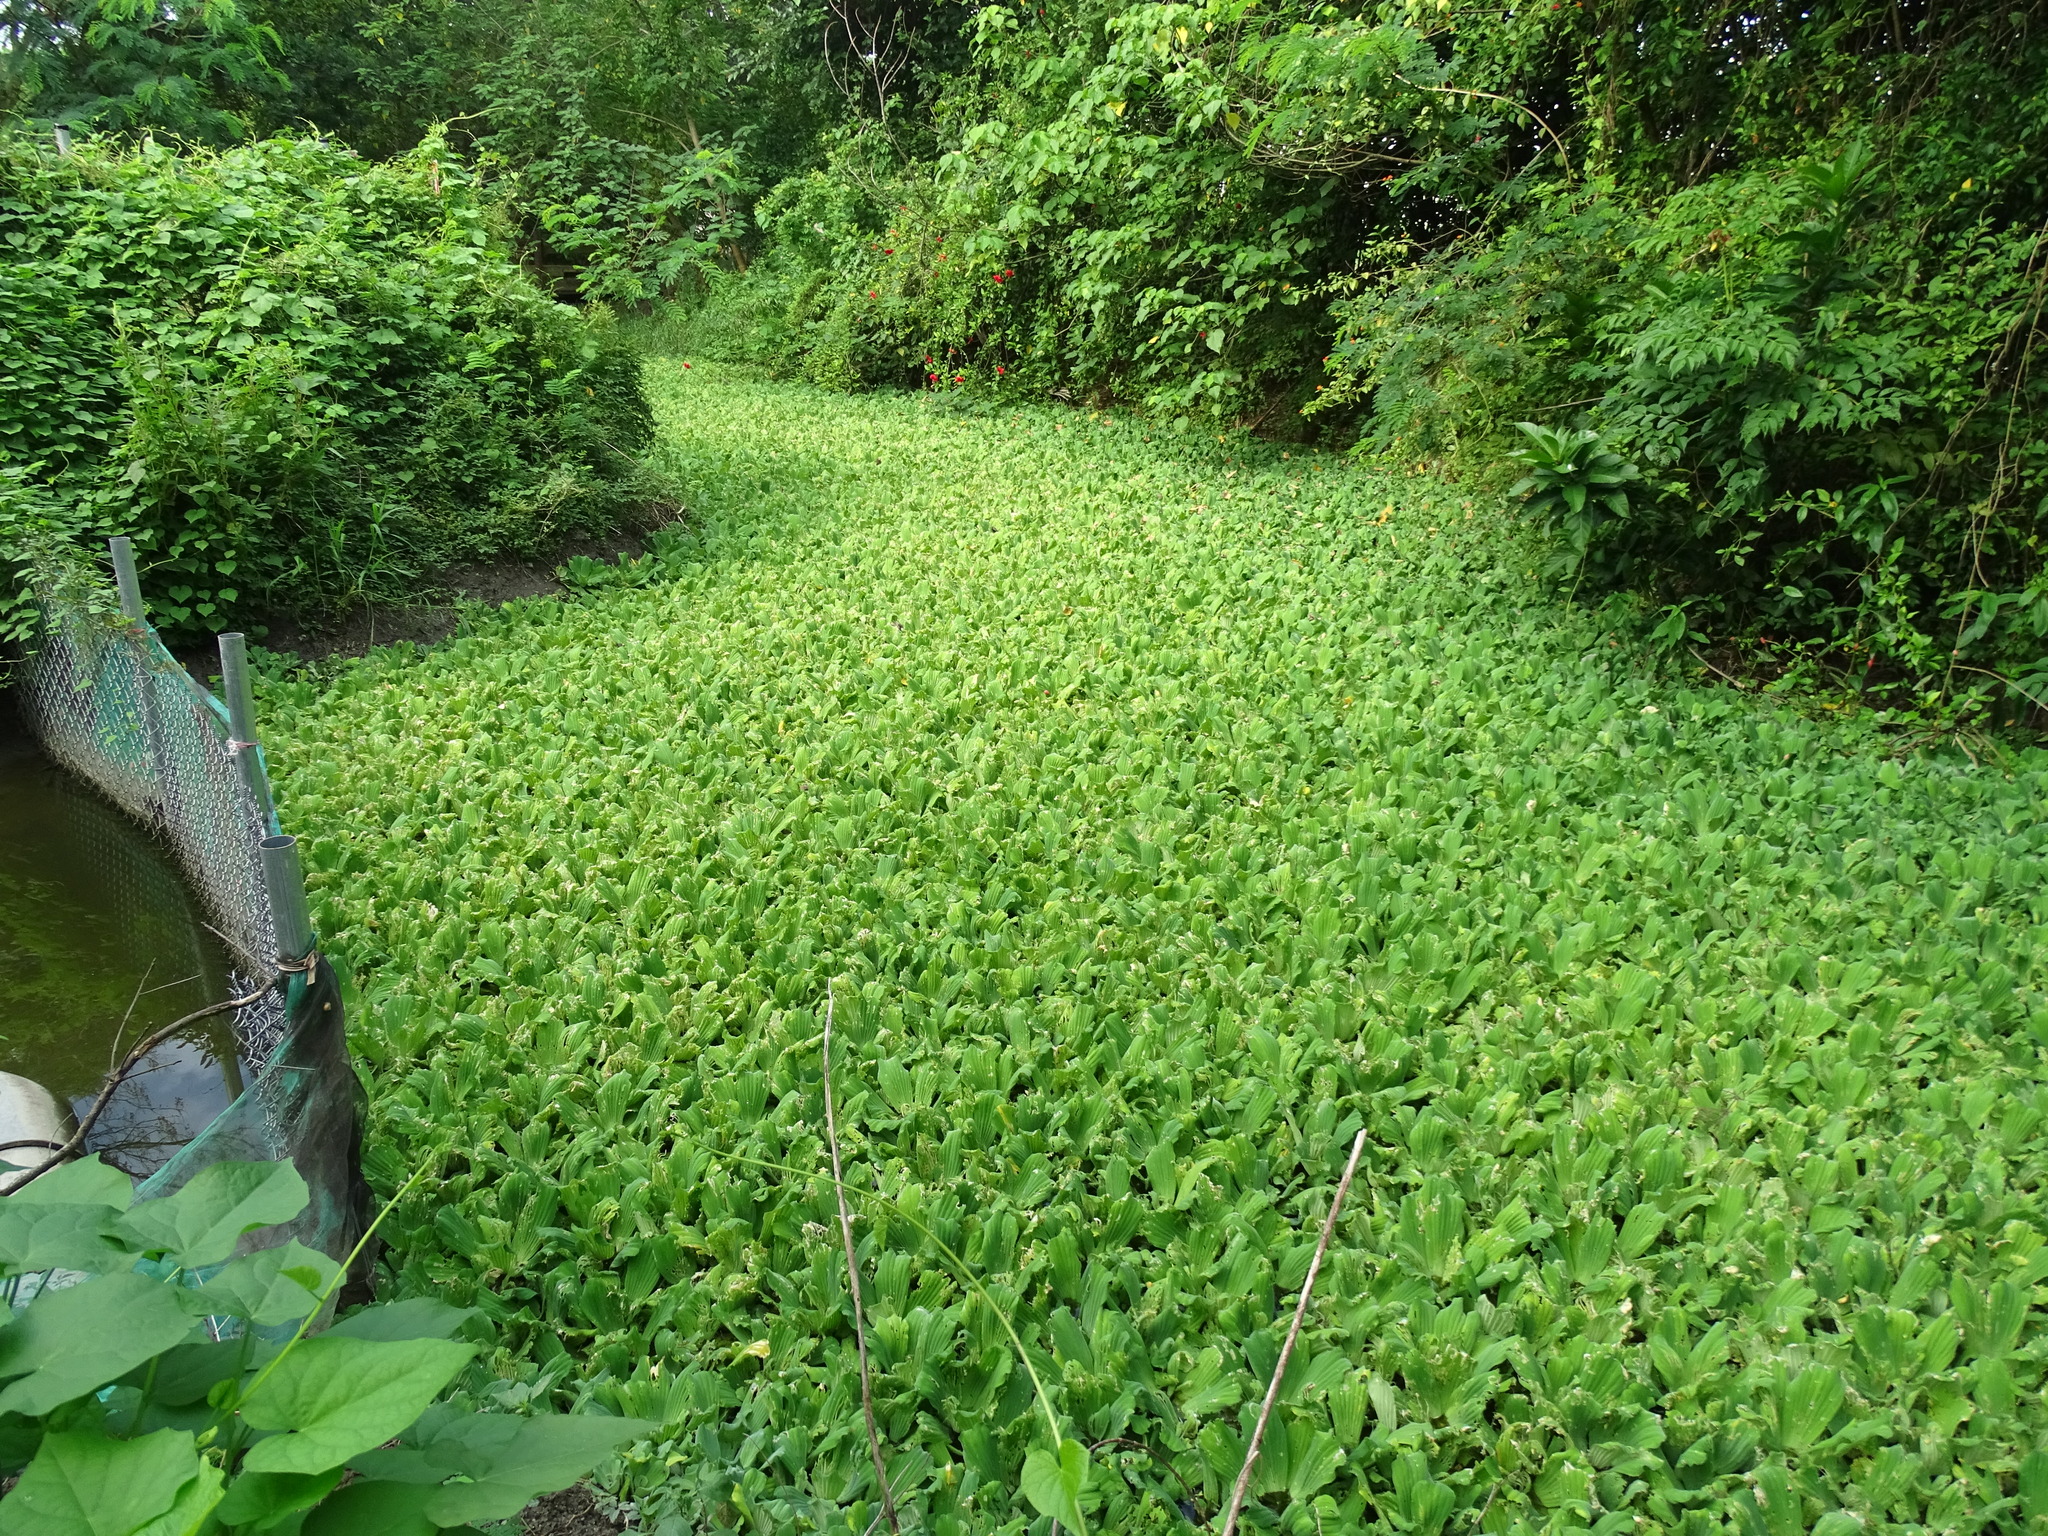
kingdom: Plantae
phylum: Tracheophyta
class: Liliopsida
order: Alismatales
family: Araceae
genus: Pistia
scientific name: Pistia stratiotes
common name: Water lettuce
